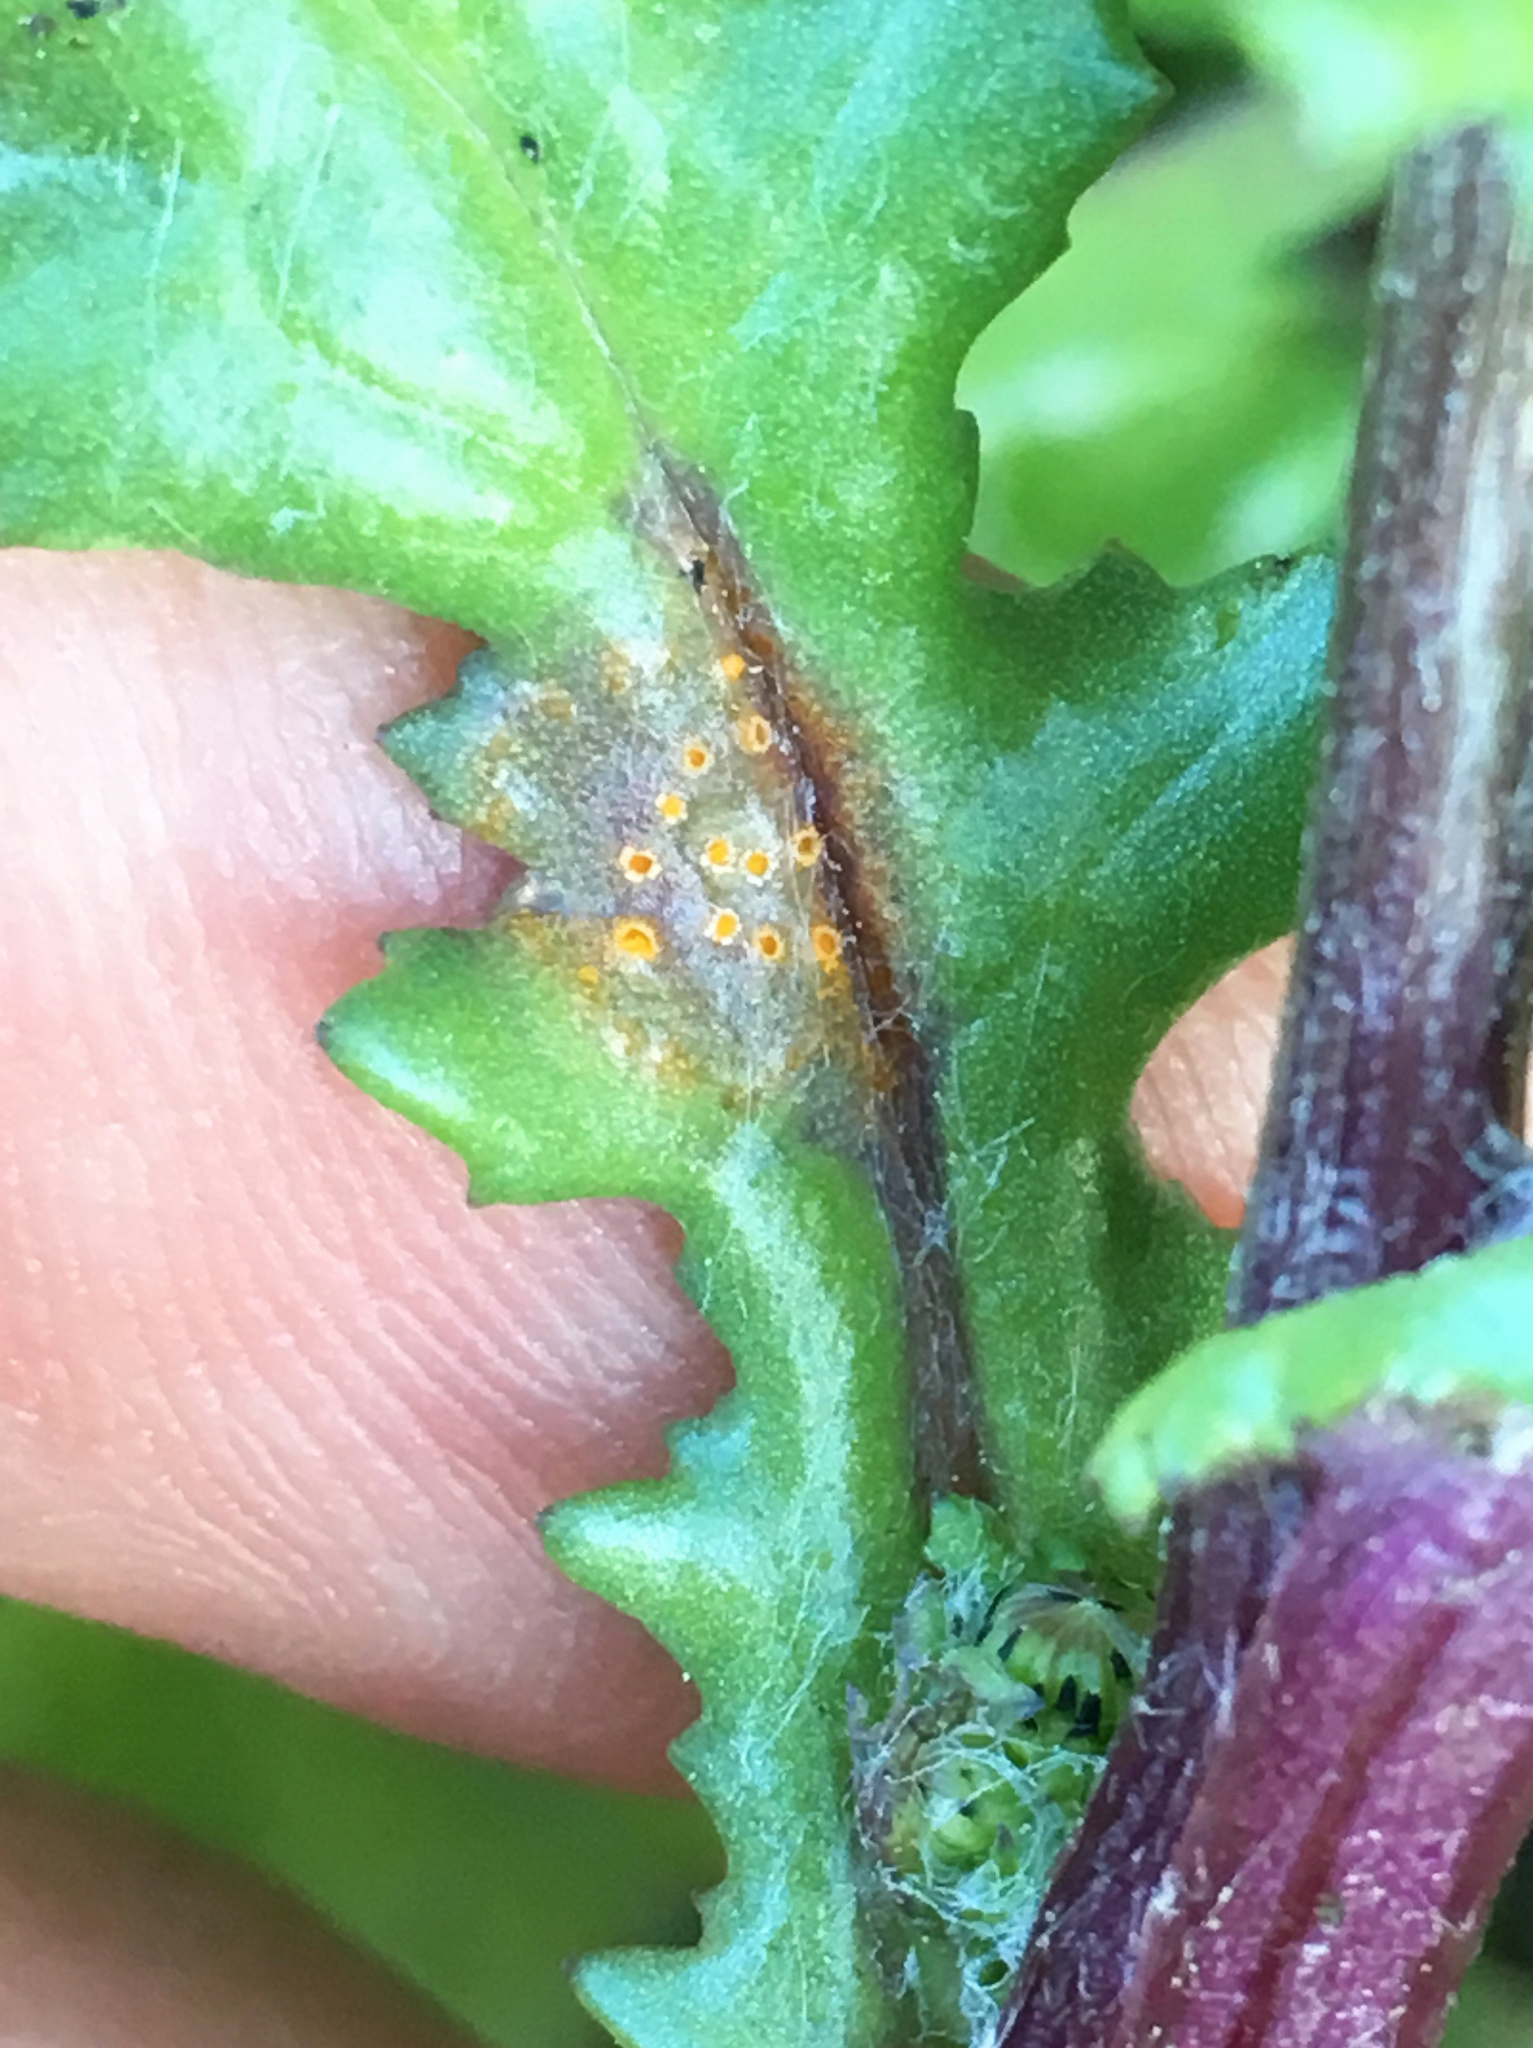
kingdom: Fungi
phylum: Basidiomycota
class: Pucciniomycetes
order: Pucciniales
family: Pucciniaceae
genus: Puccinia
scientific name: Puccinia lagenophorae
